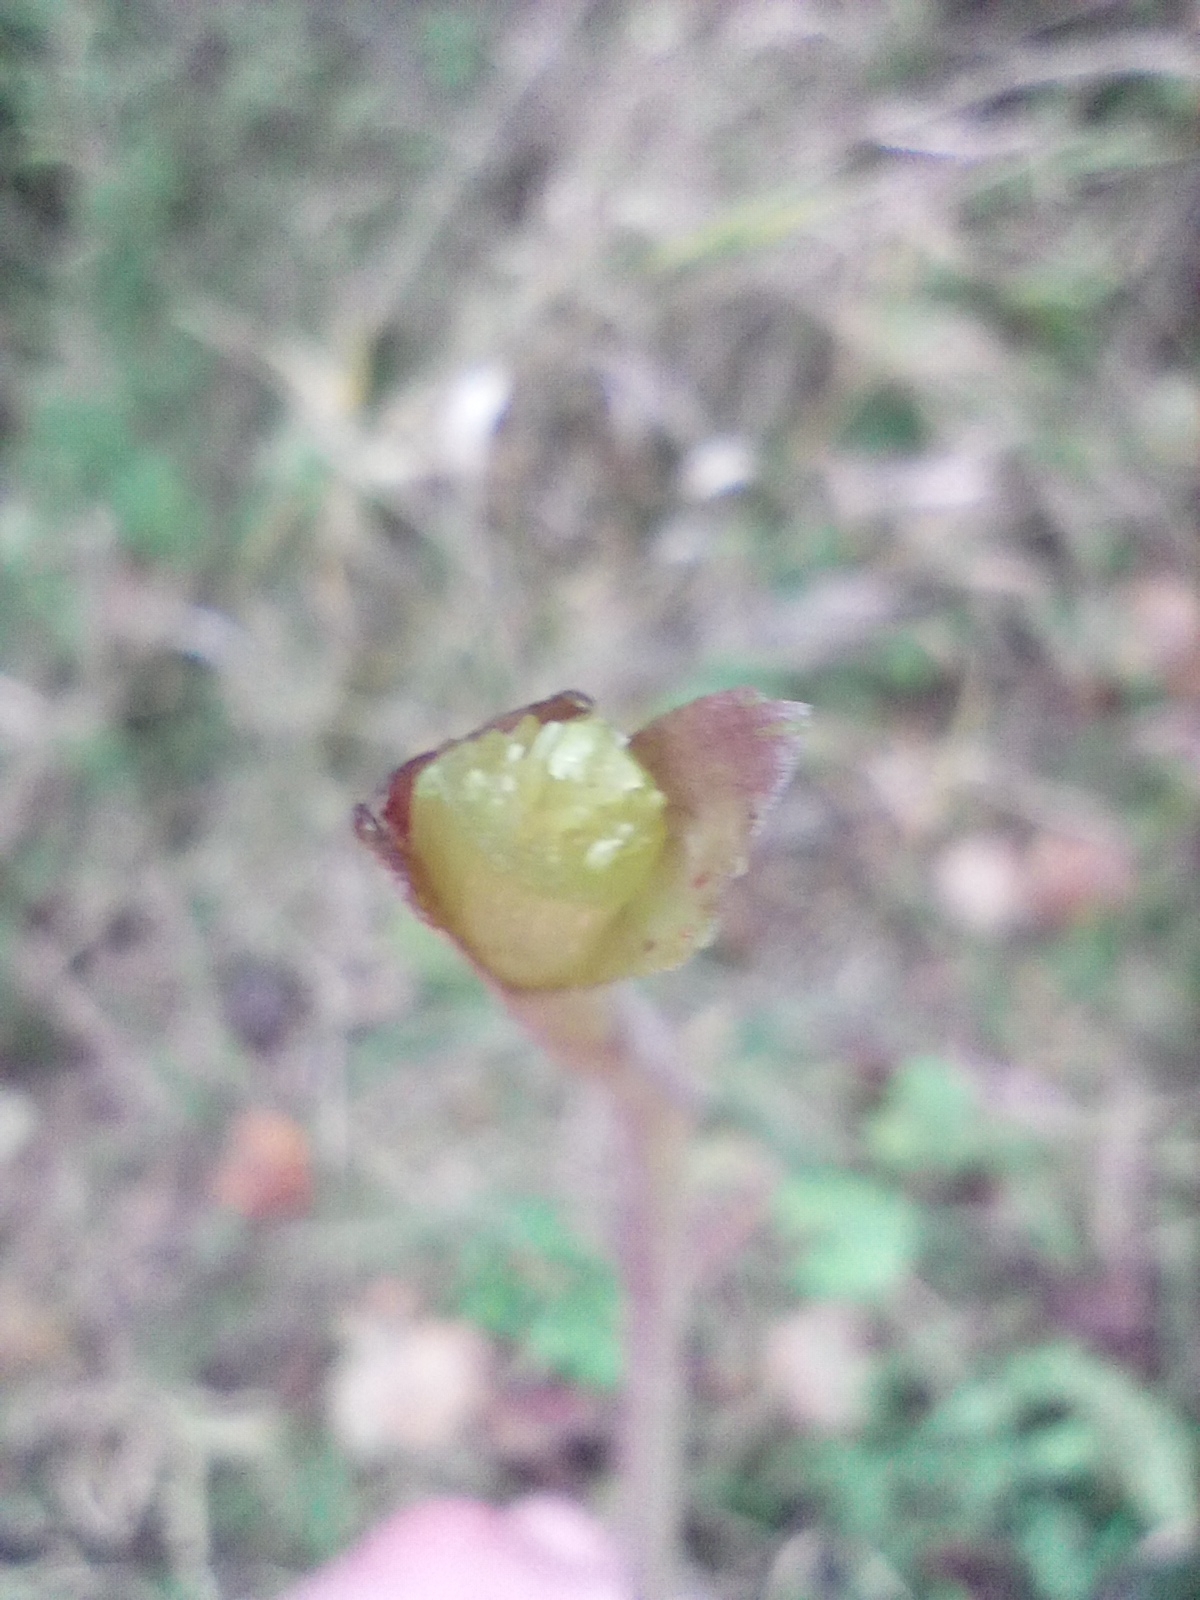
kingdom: Plantae
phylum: Tracheophyta
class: Magnoliopsida
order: Asterales
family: Asteraceae
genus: Tussilago
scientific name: Tussilago farfara
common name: Coltsfoot
